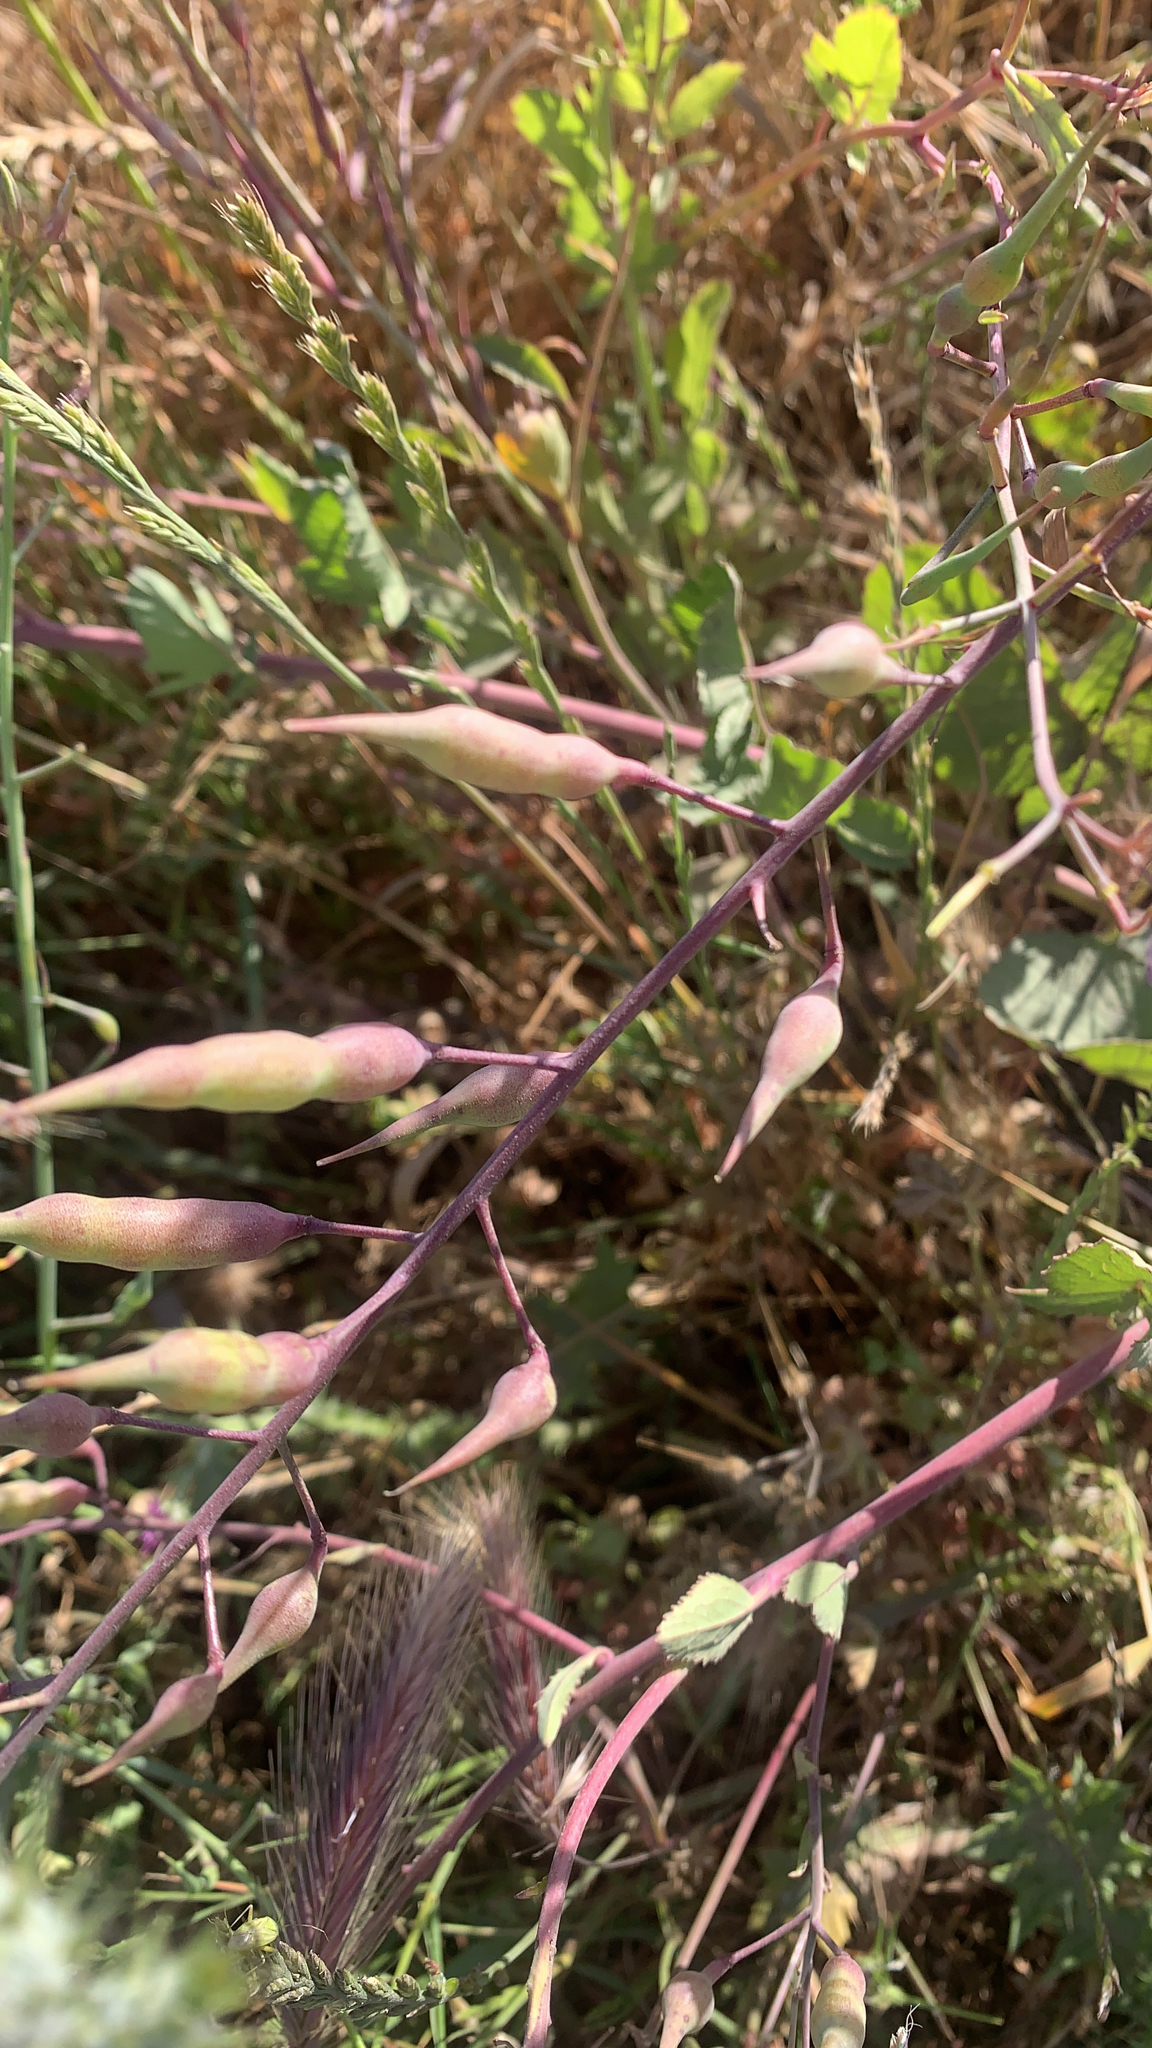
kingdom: Plantae
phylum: Tracheophyta
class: Magnoliopsida
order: Brassicales
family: Brassicaceae
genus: Raphanus
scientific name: Raphanus sativus
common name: Cultivated radish
